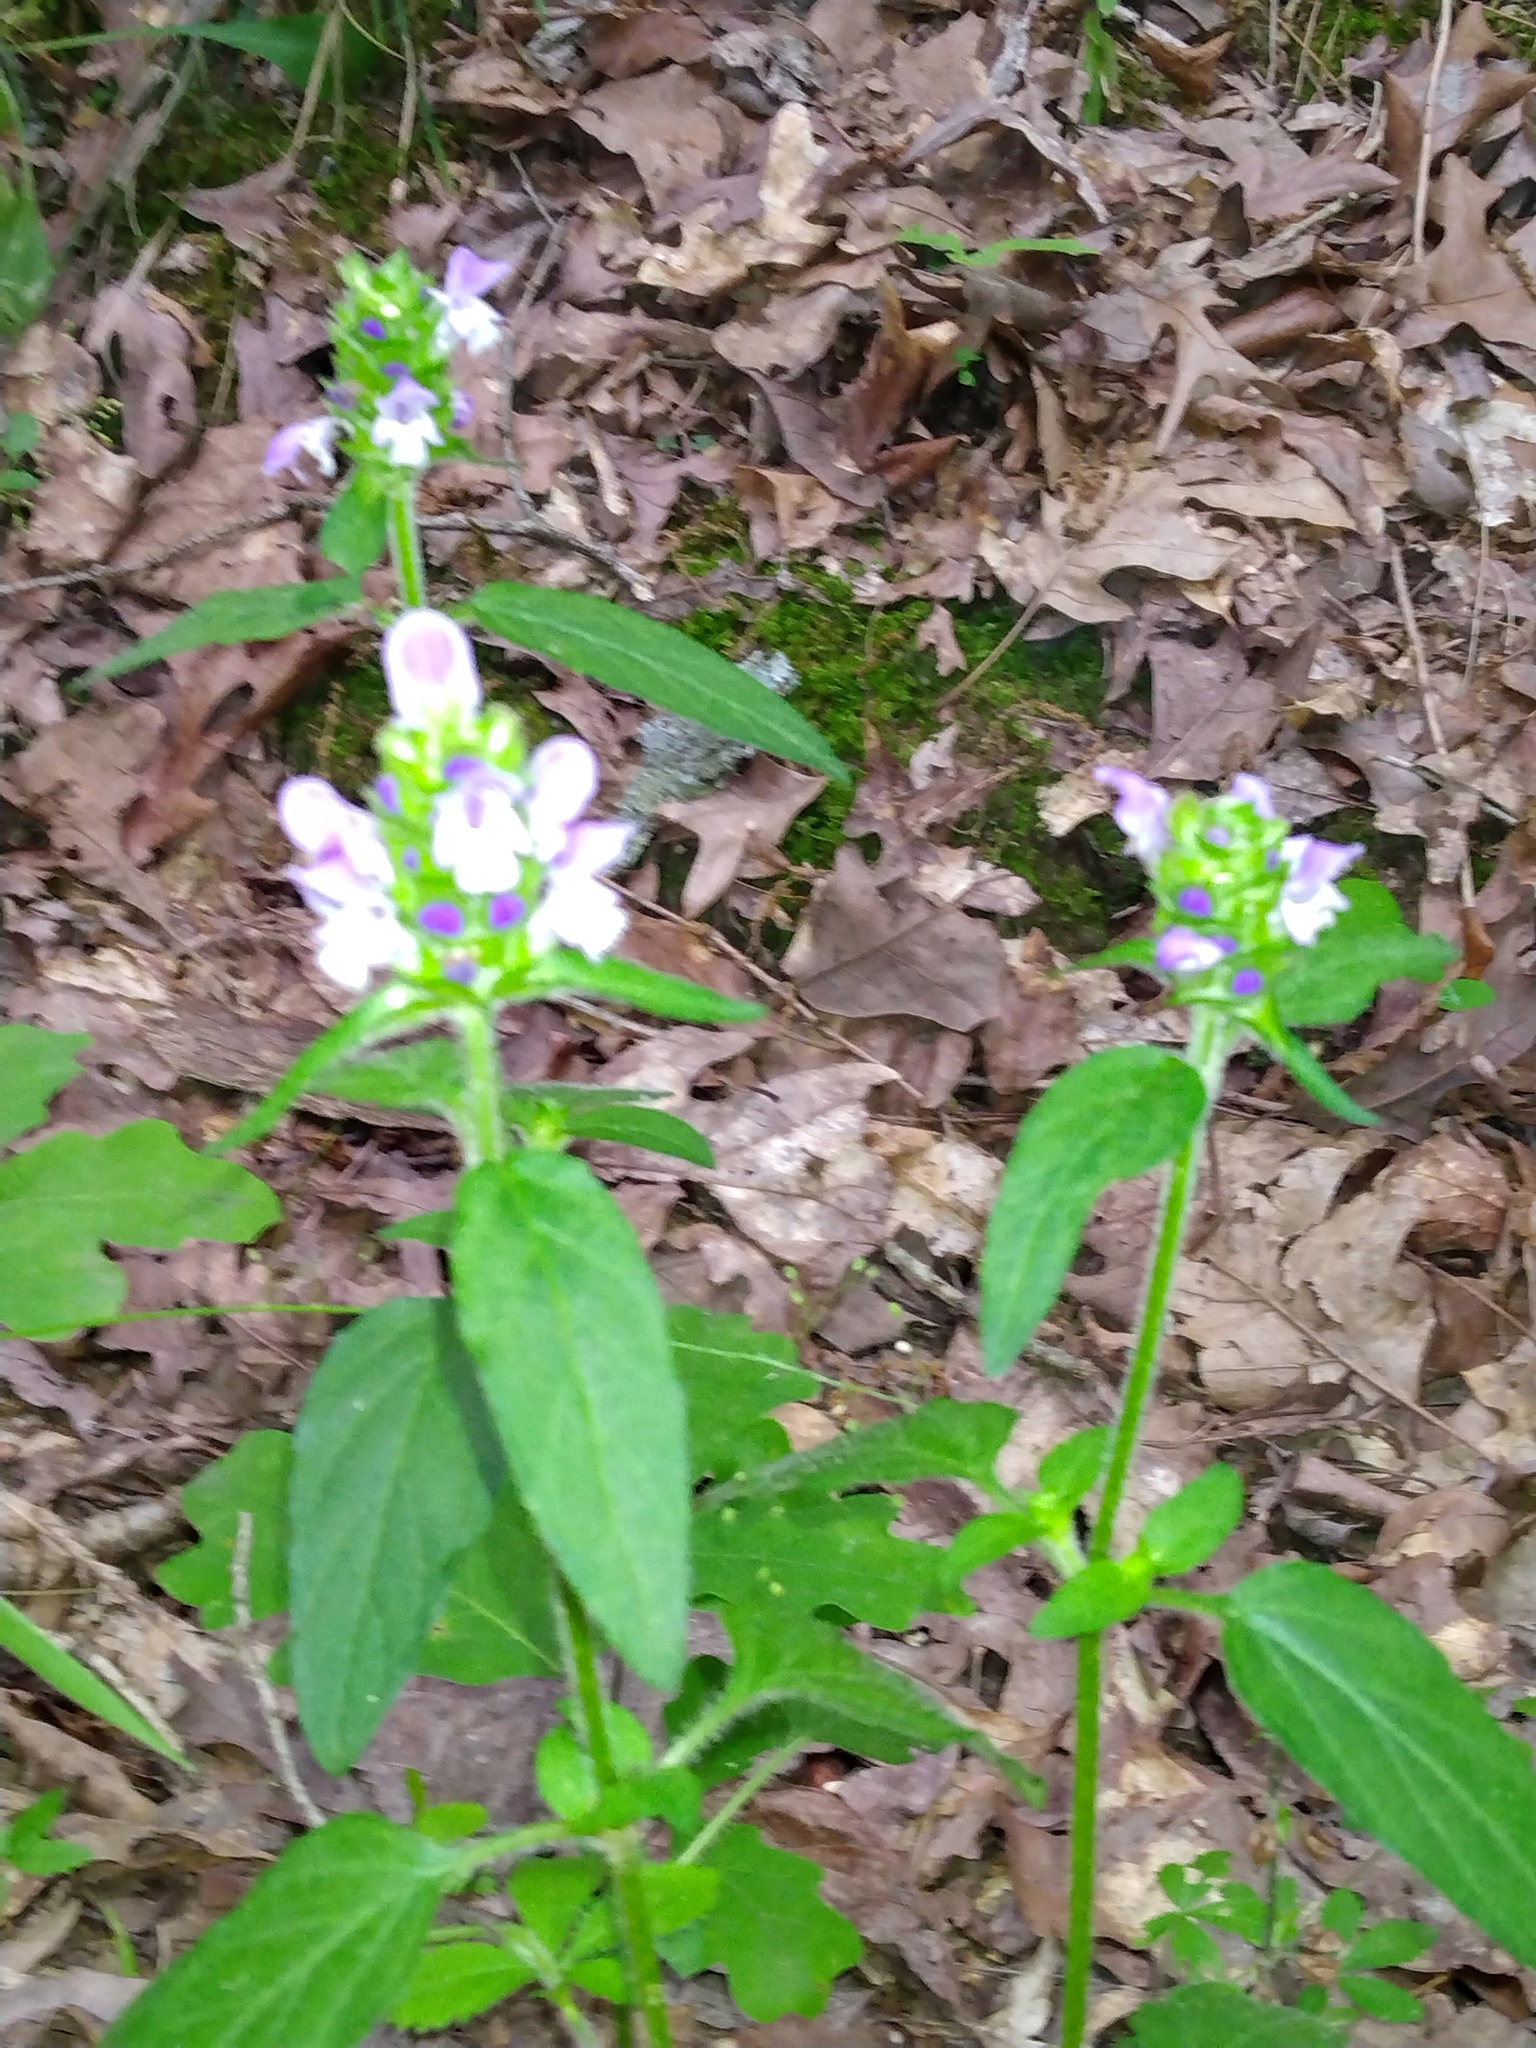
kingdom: Plantae
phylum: Tracheophyta
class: Magnoliopsida
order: Lamiales
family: Lamiaceae
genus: Prunella
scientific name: Prunella vulgaris
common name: Heal-all
